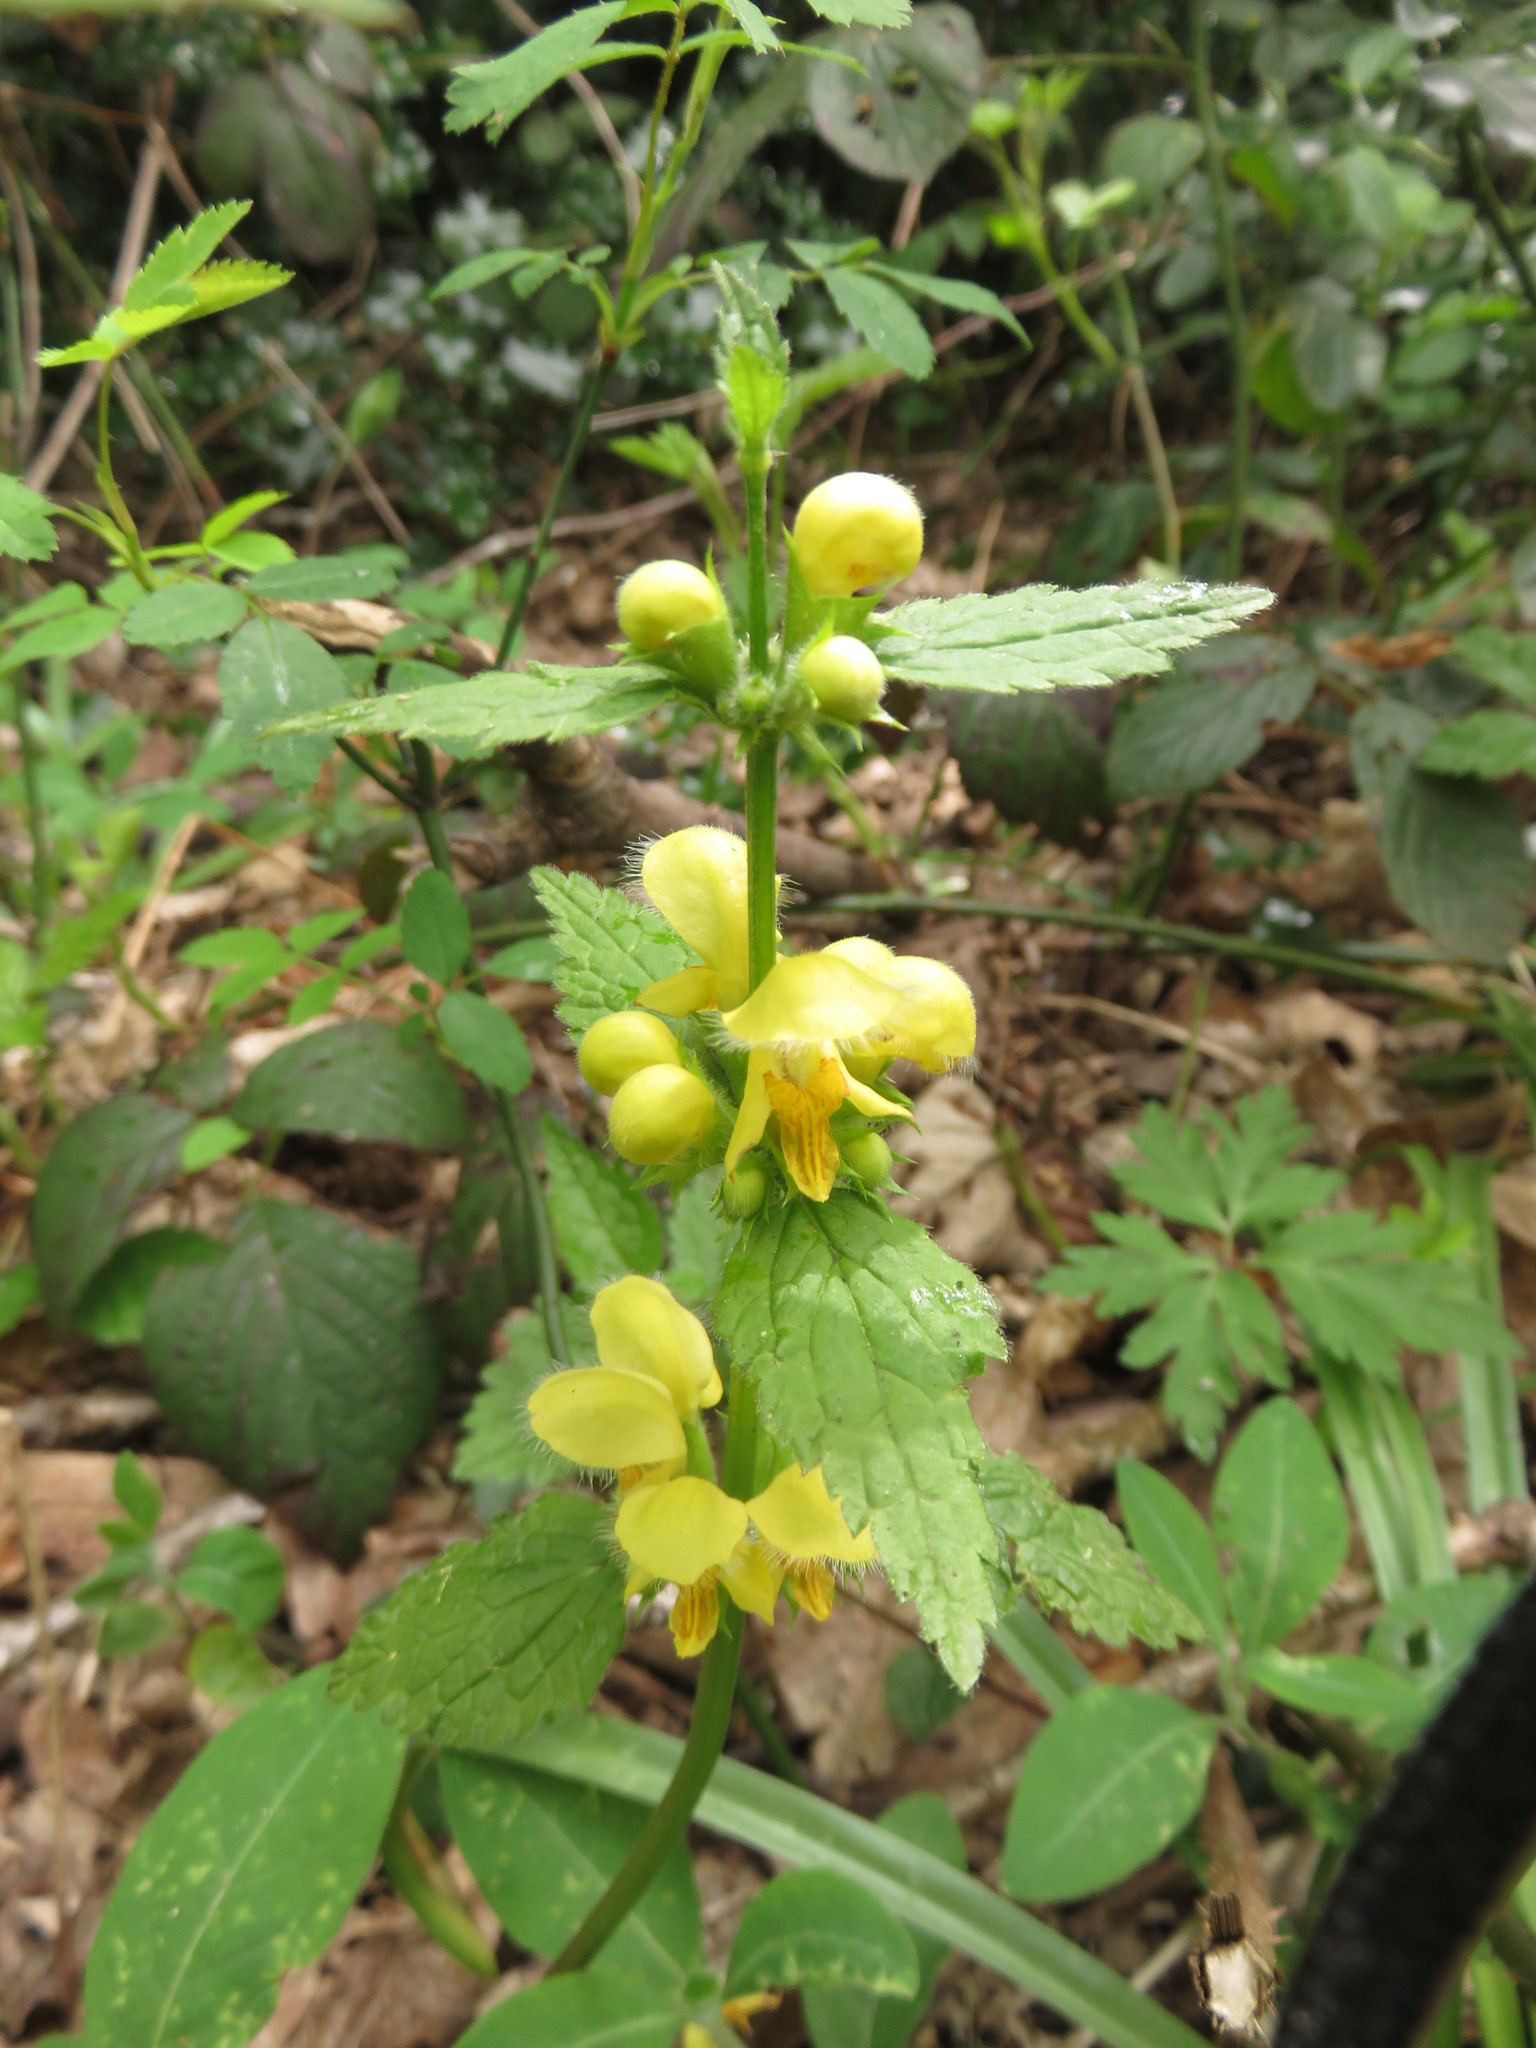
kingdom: Plantae
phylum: Tracheophyta
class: Magnoliopsida
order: Lamiales
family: Lamiaceae
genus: Lamium
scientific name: Lamium galeobdolon
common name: Yellow archangel
